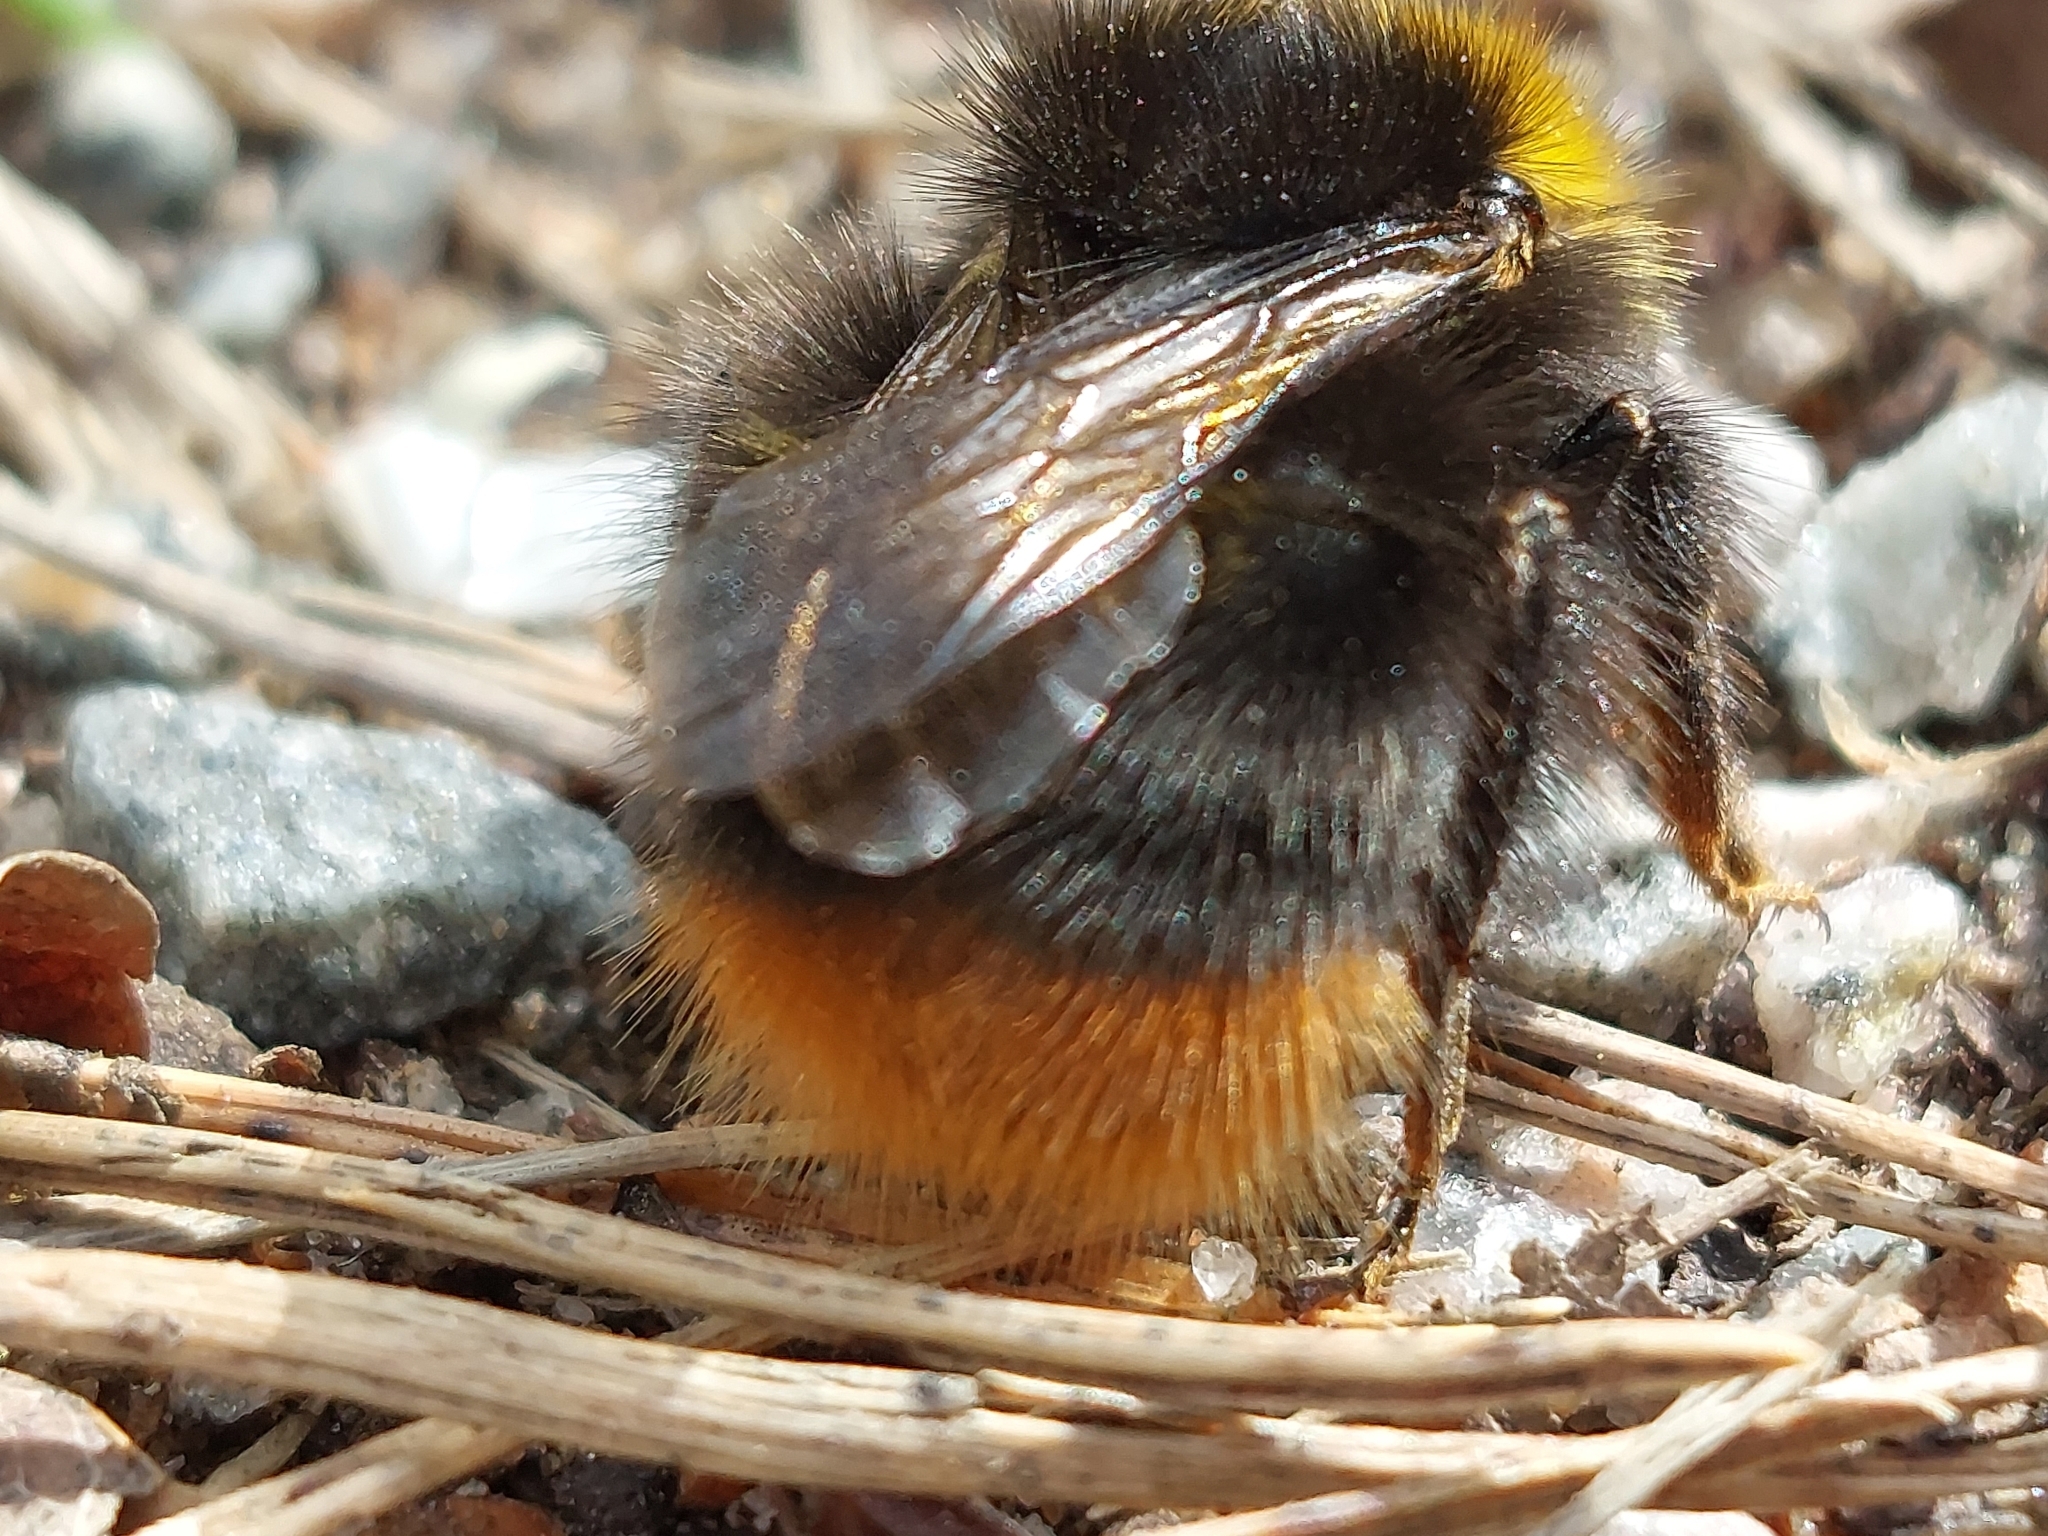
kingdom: Animalia
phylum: Arthropoda
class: Insecta
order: Hymenoptera
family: Apidae
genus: Bombus
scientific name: Bombus pratorum
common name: Early humble-bee
